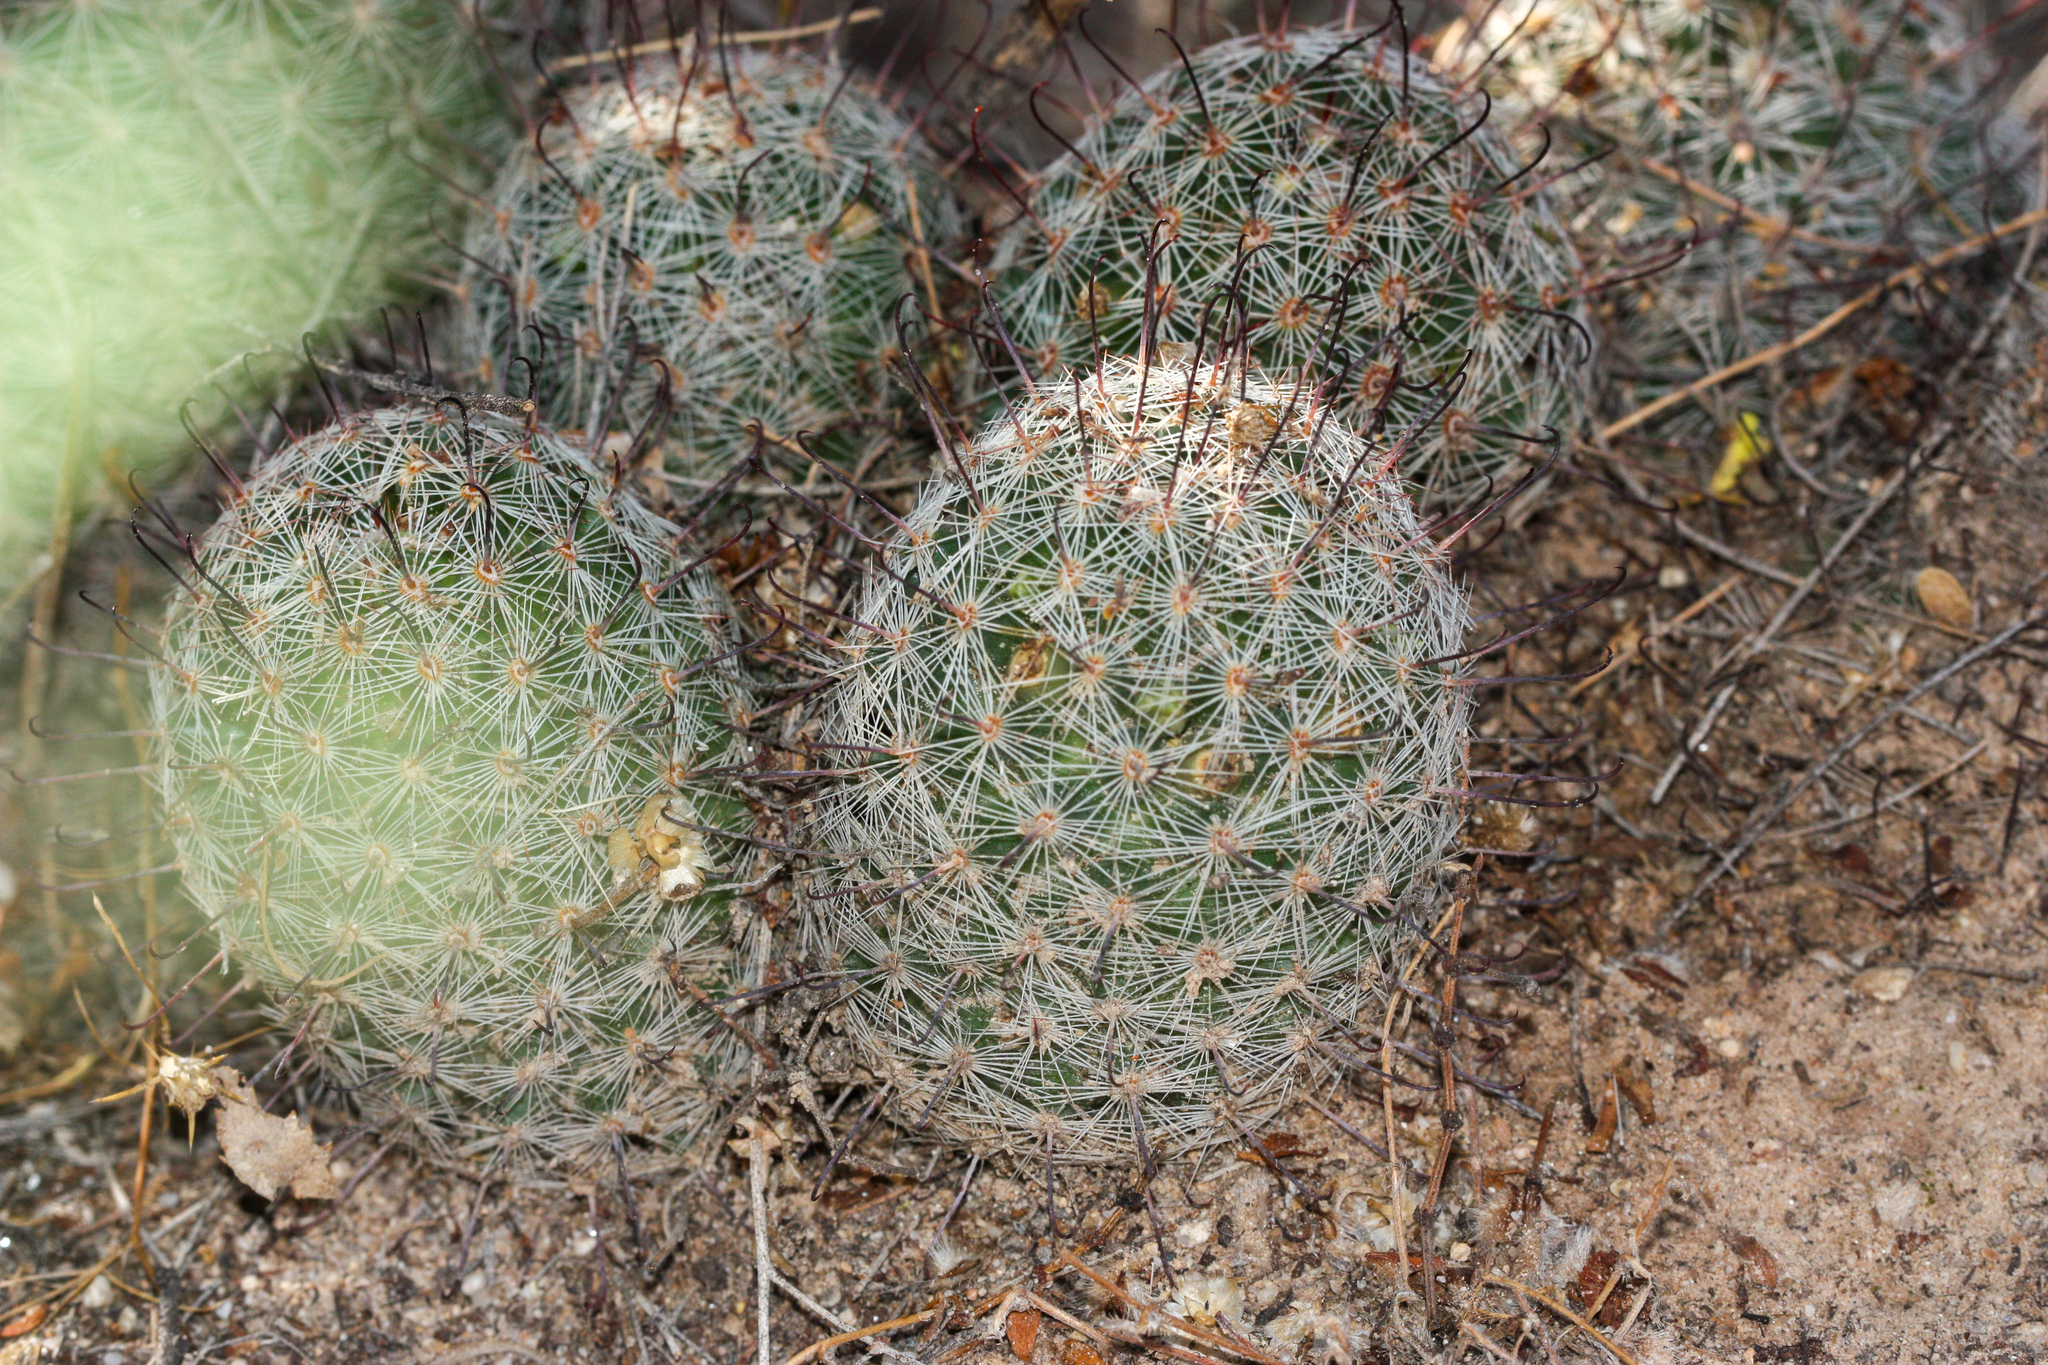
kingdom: Plantae
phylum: Tracheophyta
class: Magnoliopsida
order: Caryophyllales
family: Cactaceae
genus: Cochemiea
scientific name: Cochemiea grahamii
